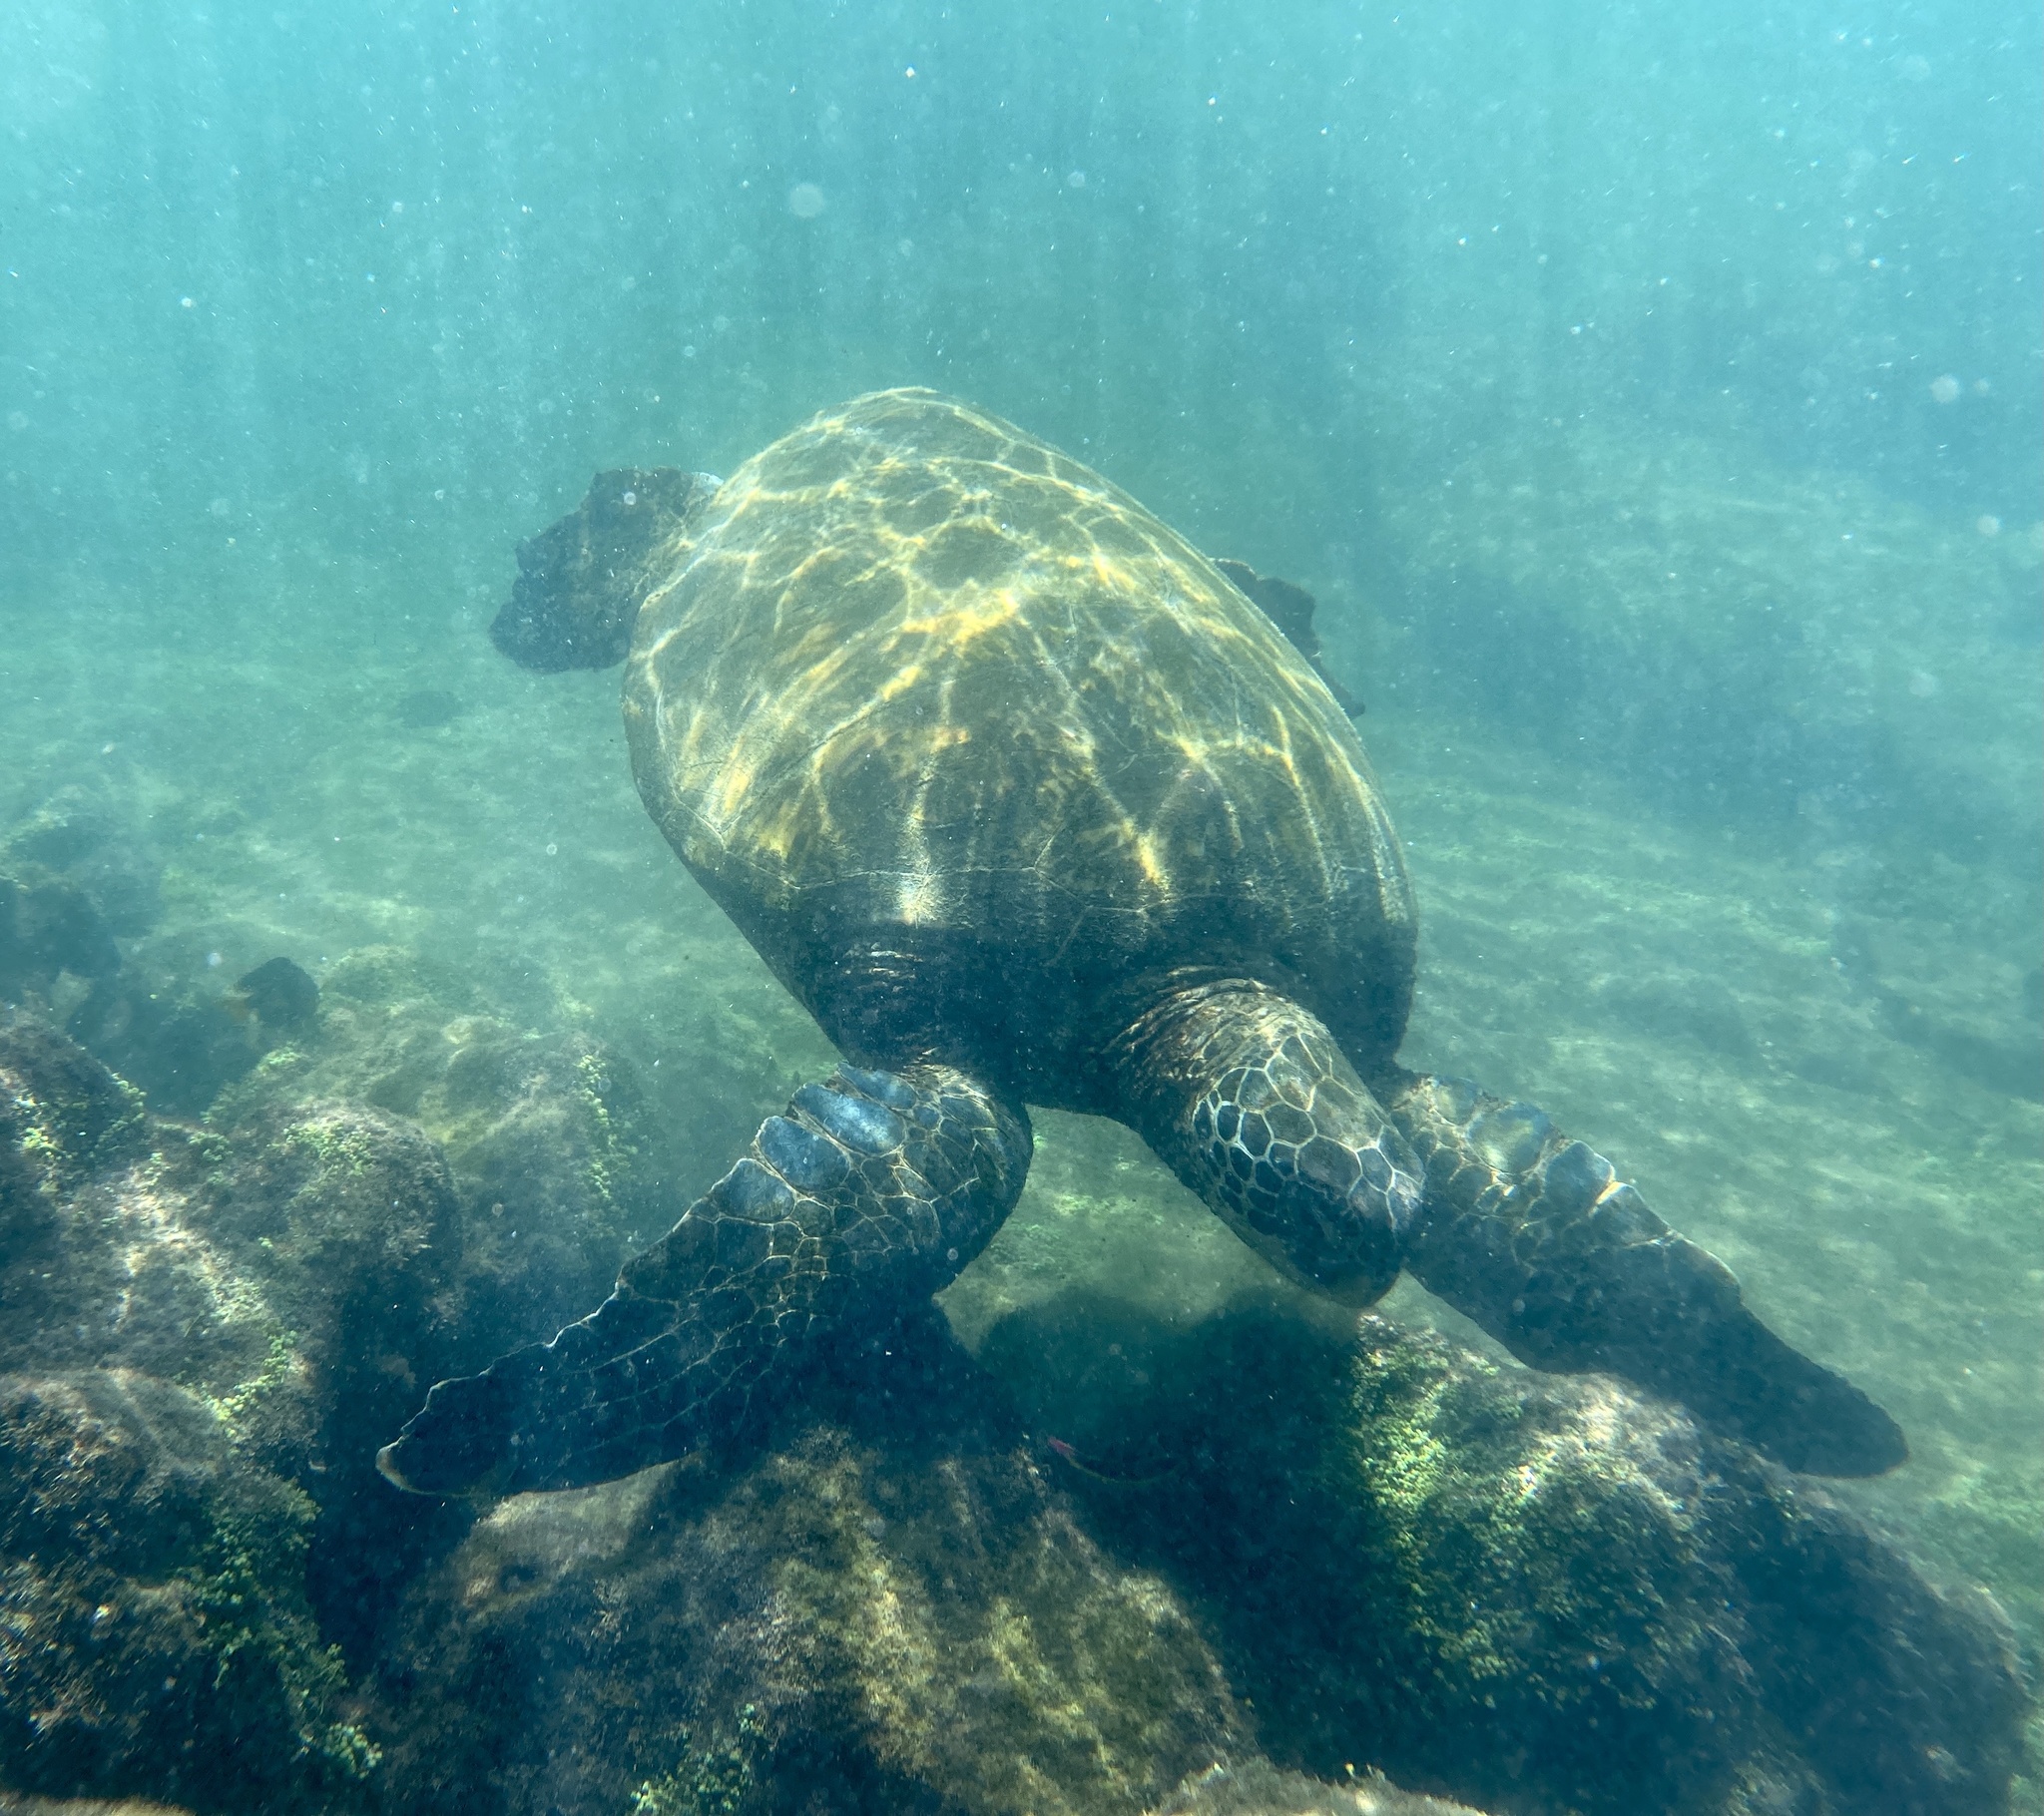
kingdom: Animalia
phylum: Chordata
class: Testudines
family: Cheloniidae
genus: Chelonia
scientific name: Chelonia mydas
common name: Green turtle
